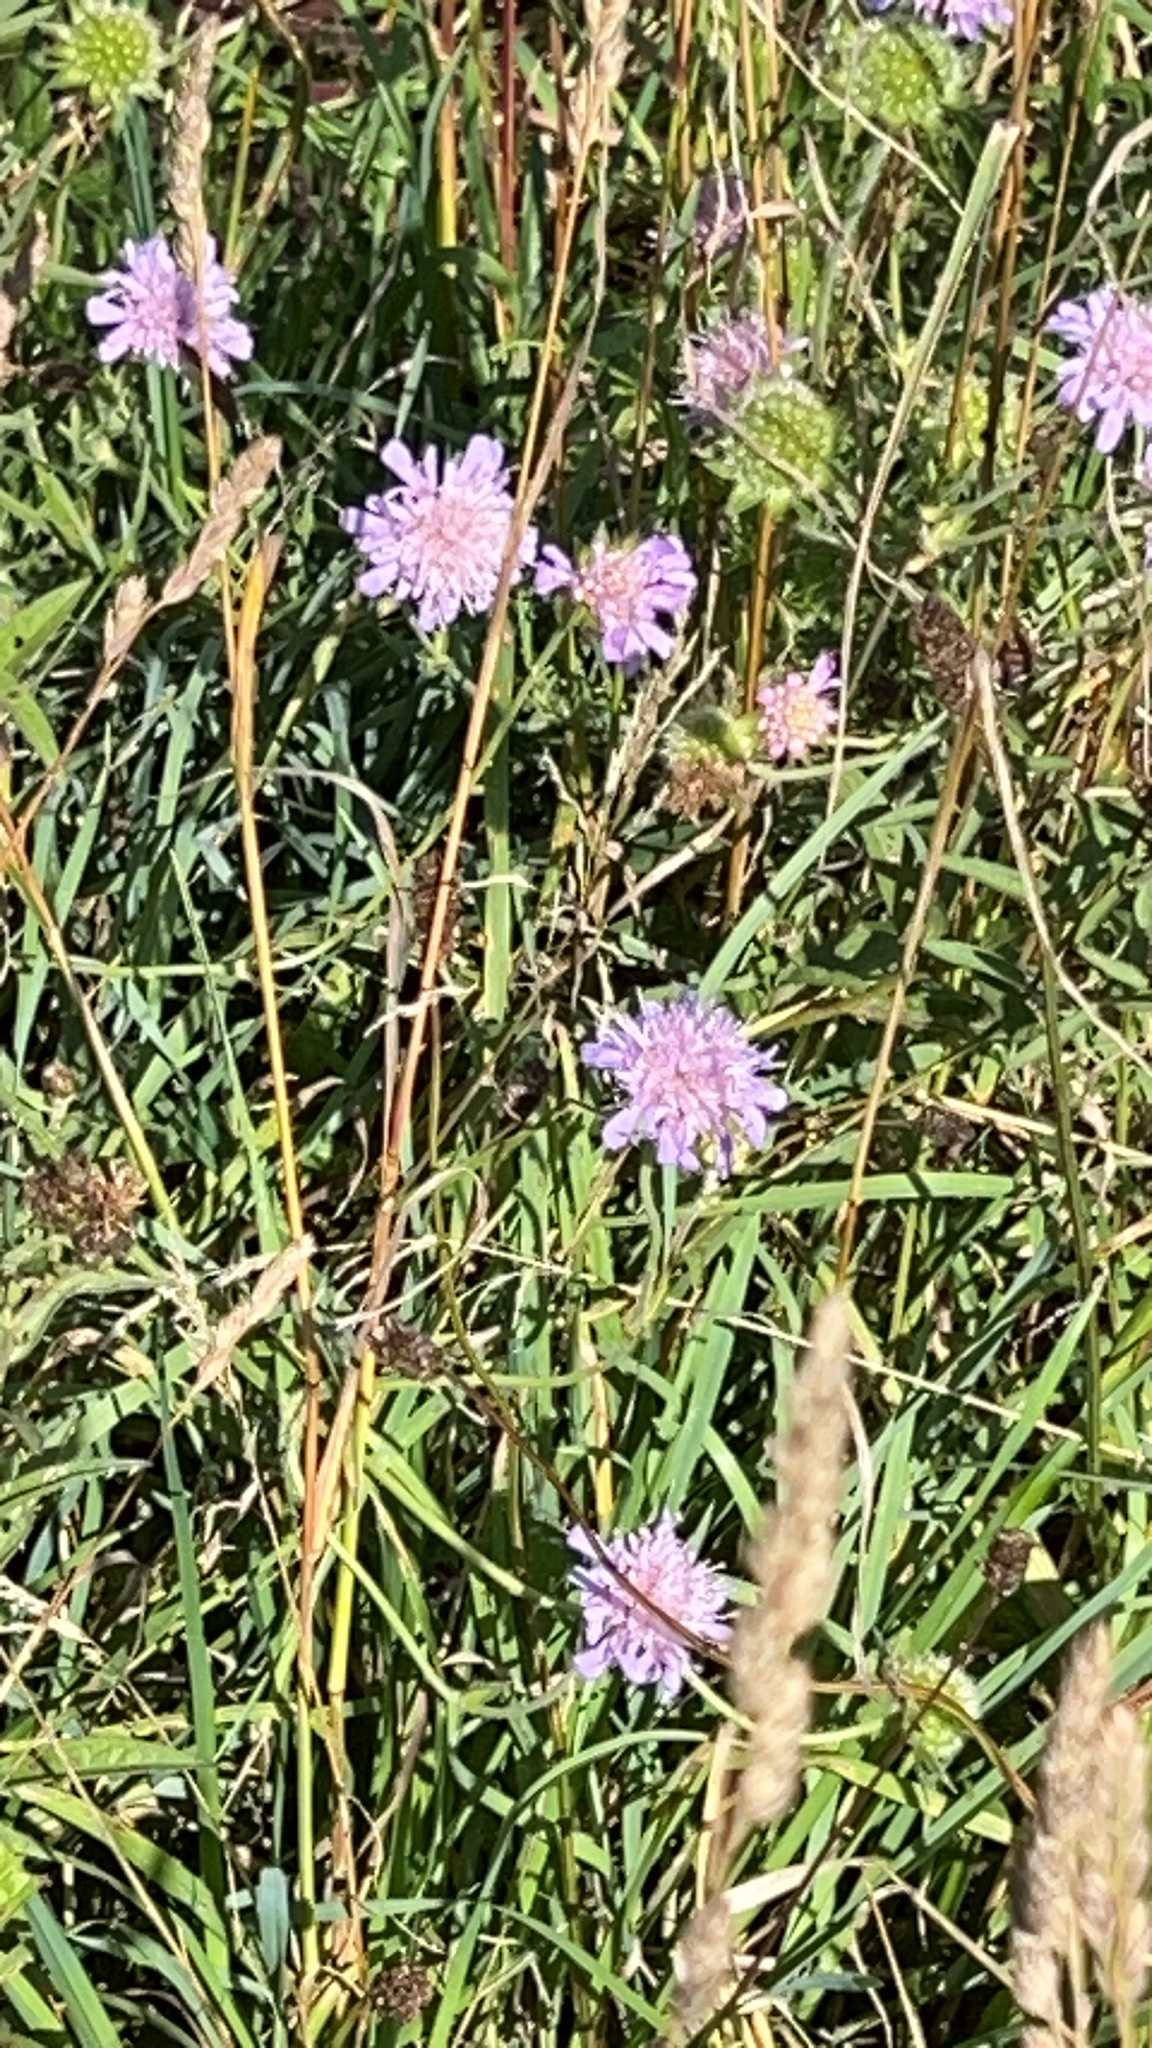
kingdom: Plantae
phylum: Tracheophyta
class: Magnoliopsida
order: Dipsacales
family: Caprifoliaceae
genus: Knautia
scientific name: Knautia arvensis
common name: Field scabiosa
